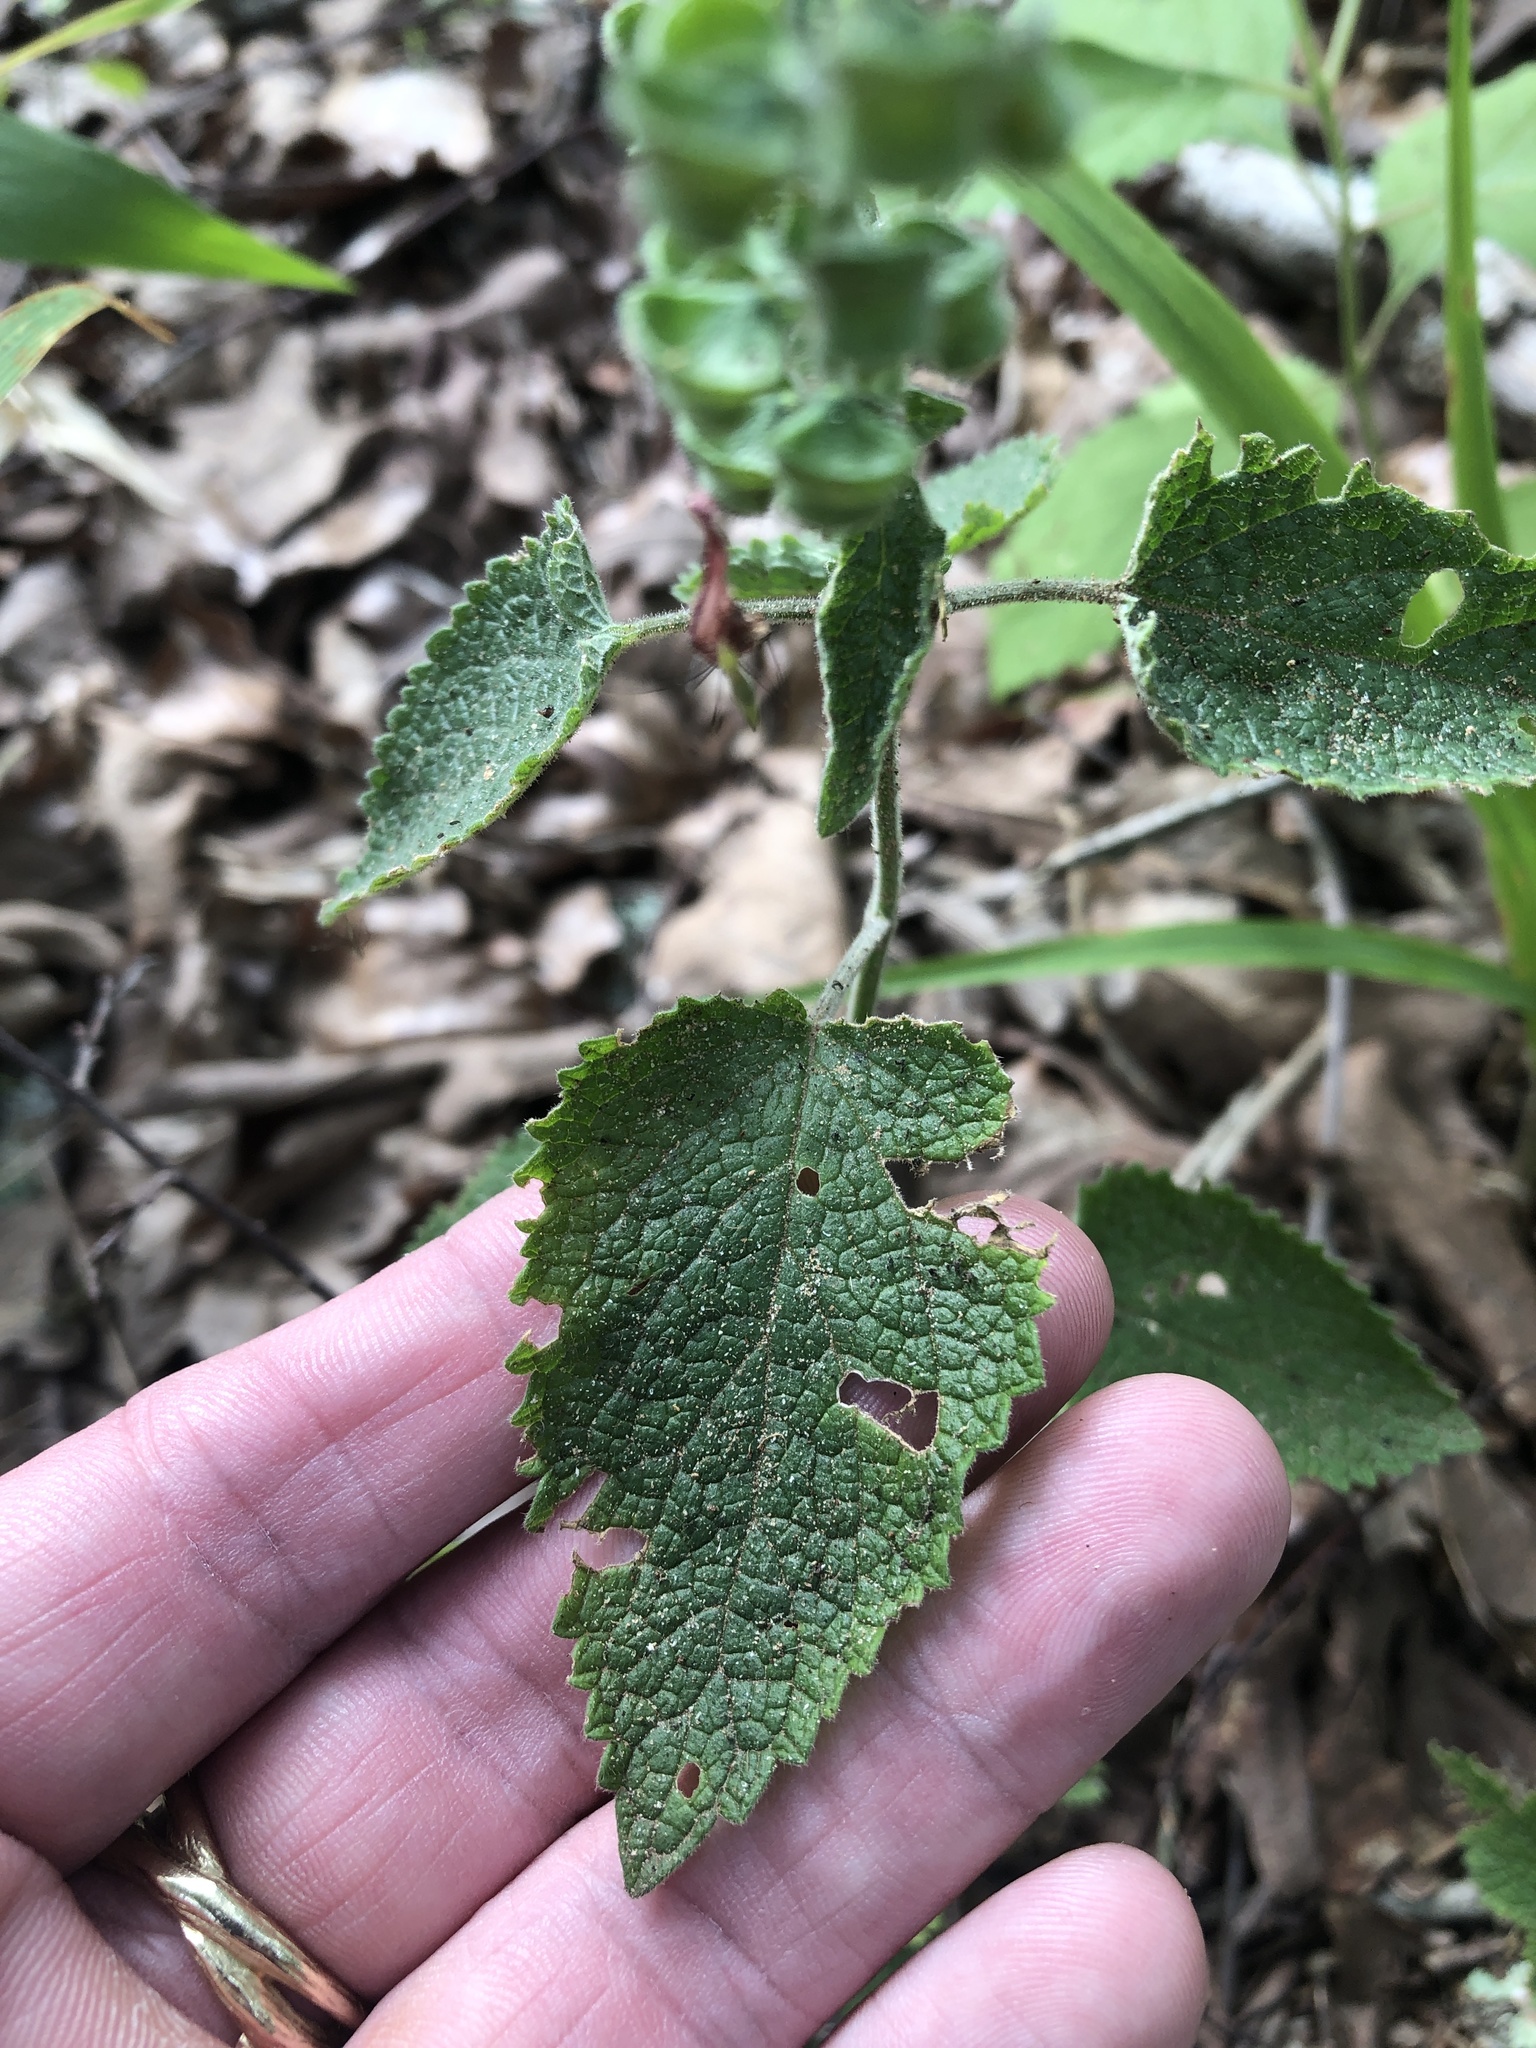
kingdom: Plantae
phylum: Tracheophyta
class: Magnoliopsida
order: Lamiales
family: Lamiaceae
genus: Scutellaria
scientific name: Scutellaria ovata
